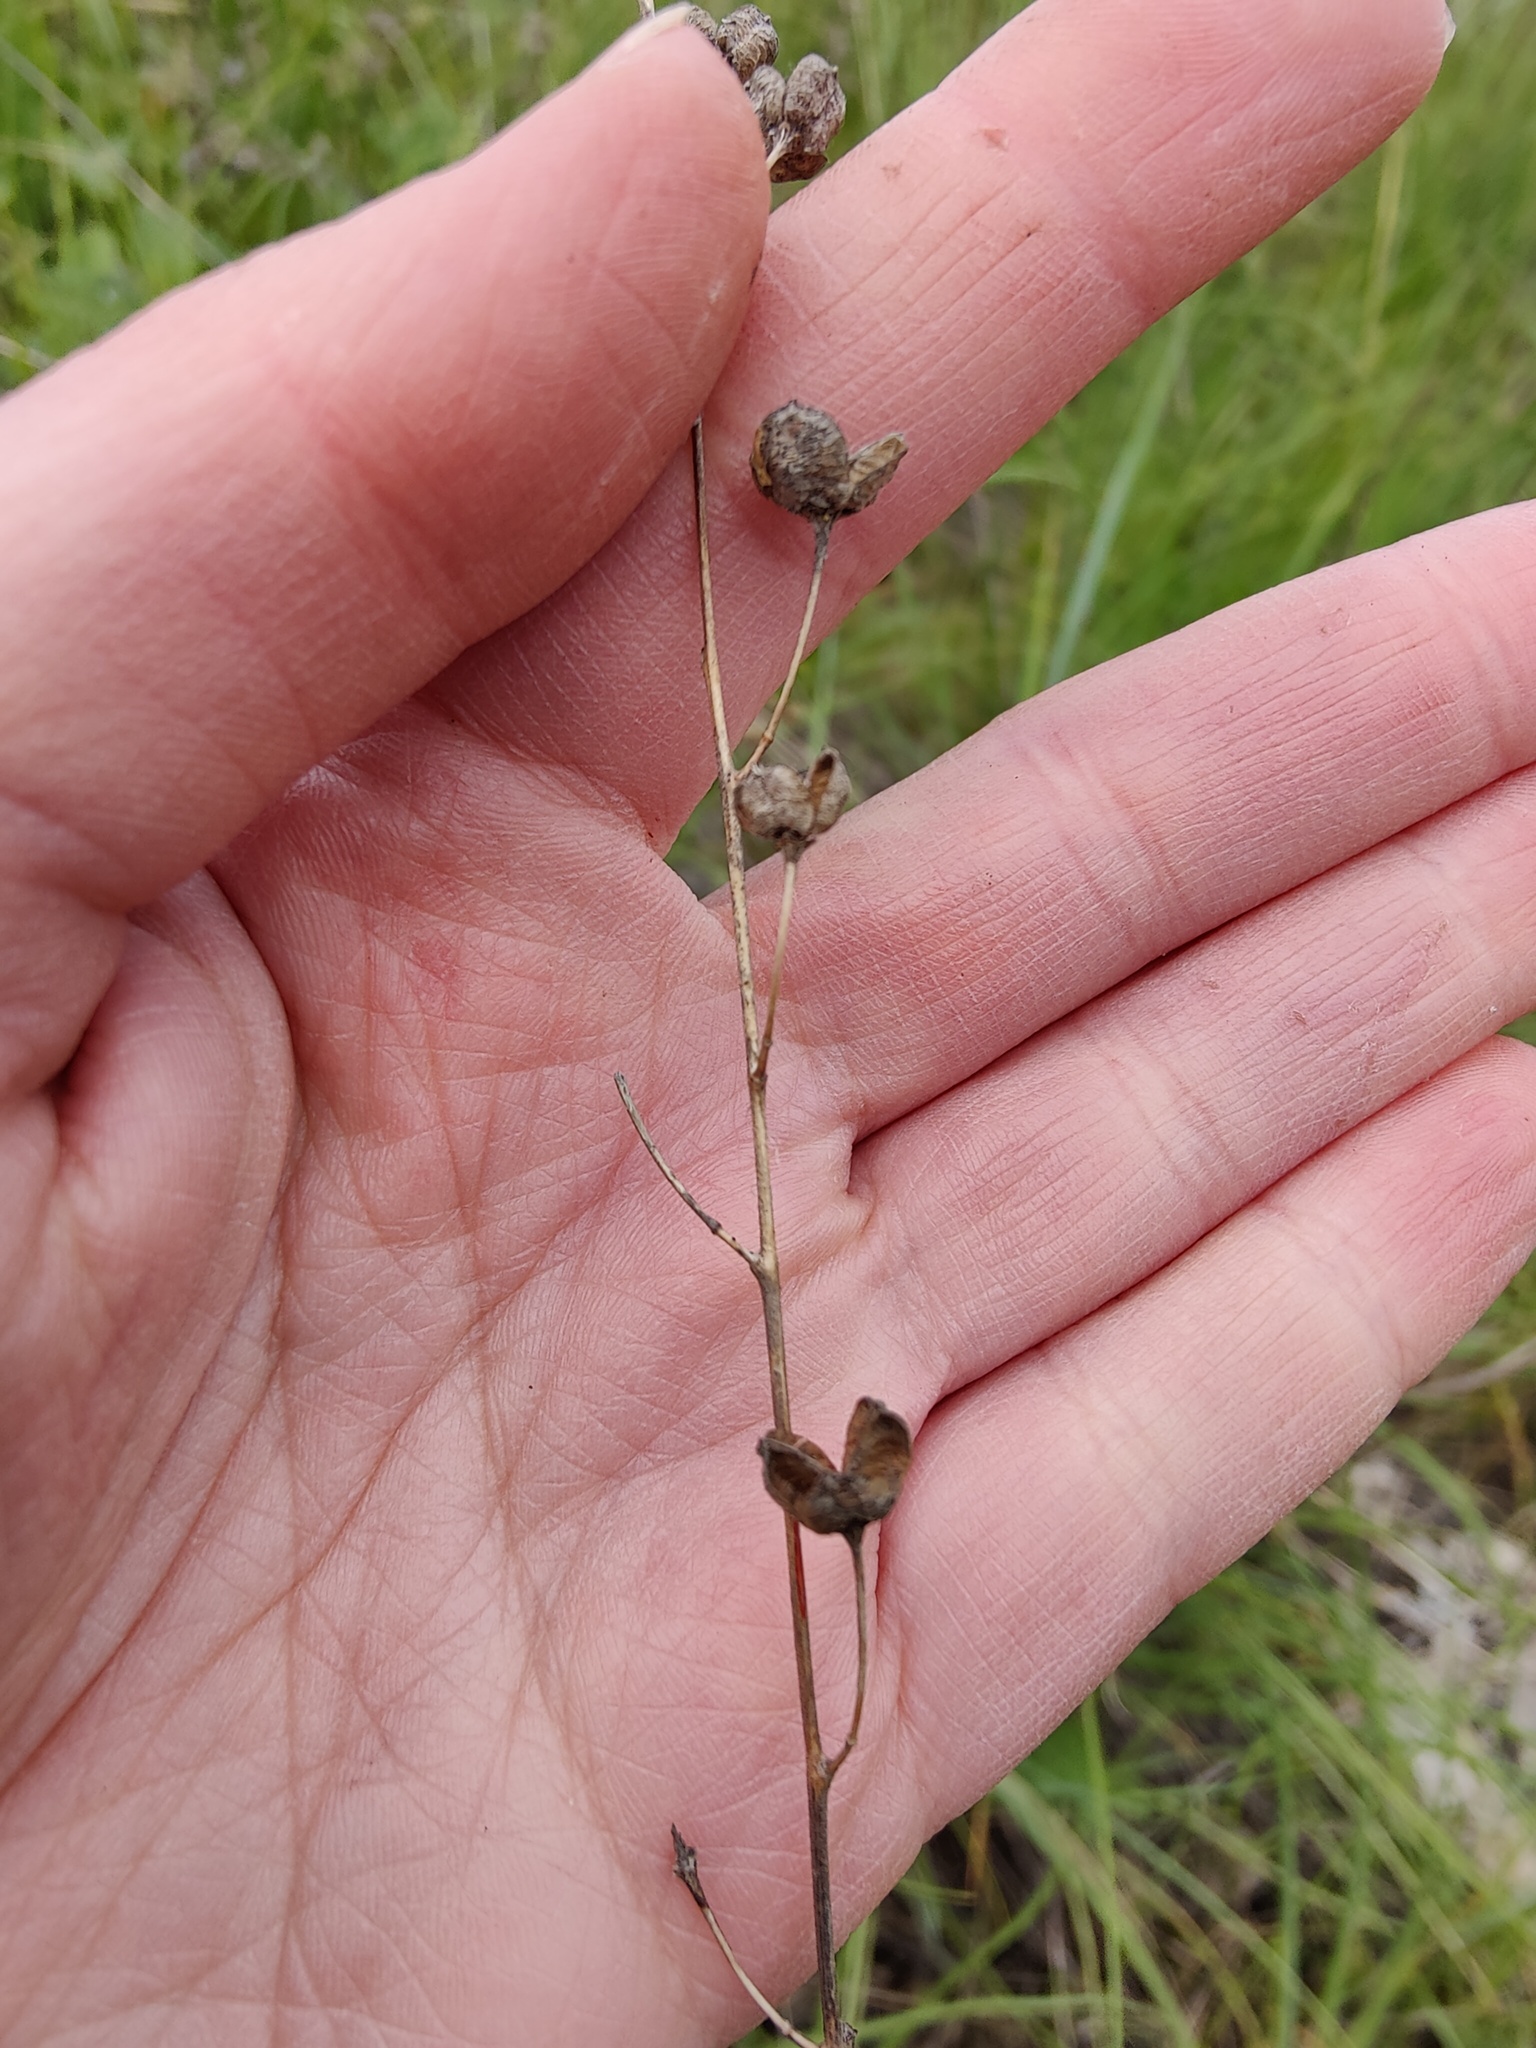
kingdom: Plantae
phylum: Tracheophyta
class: Magnoliopsida
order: Lamiales
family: Scrophulariaceae
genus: Verbascum
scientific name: Verbascum phoeniceum
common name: Purple mullein
